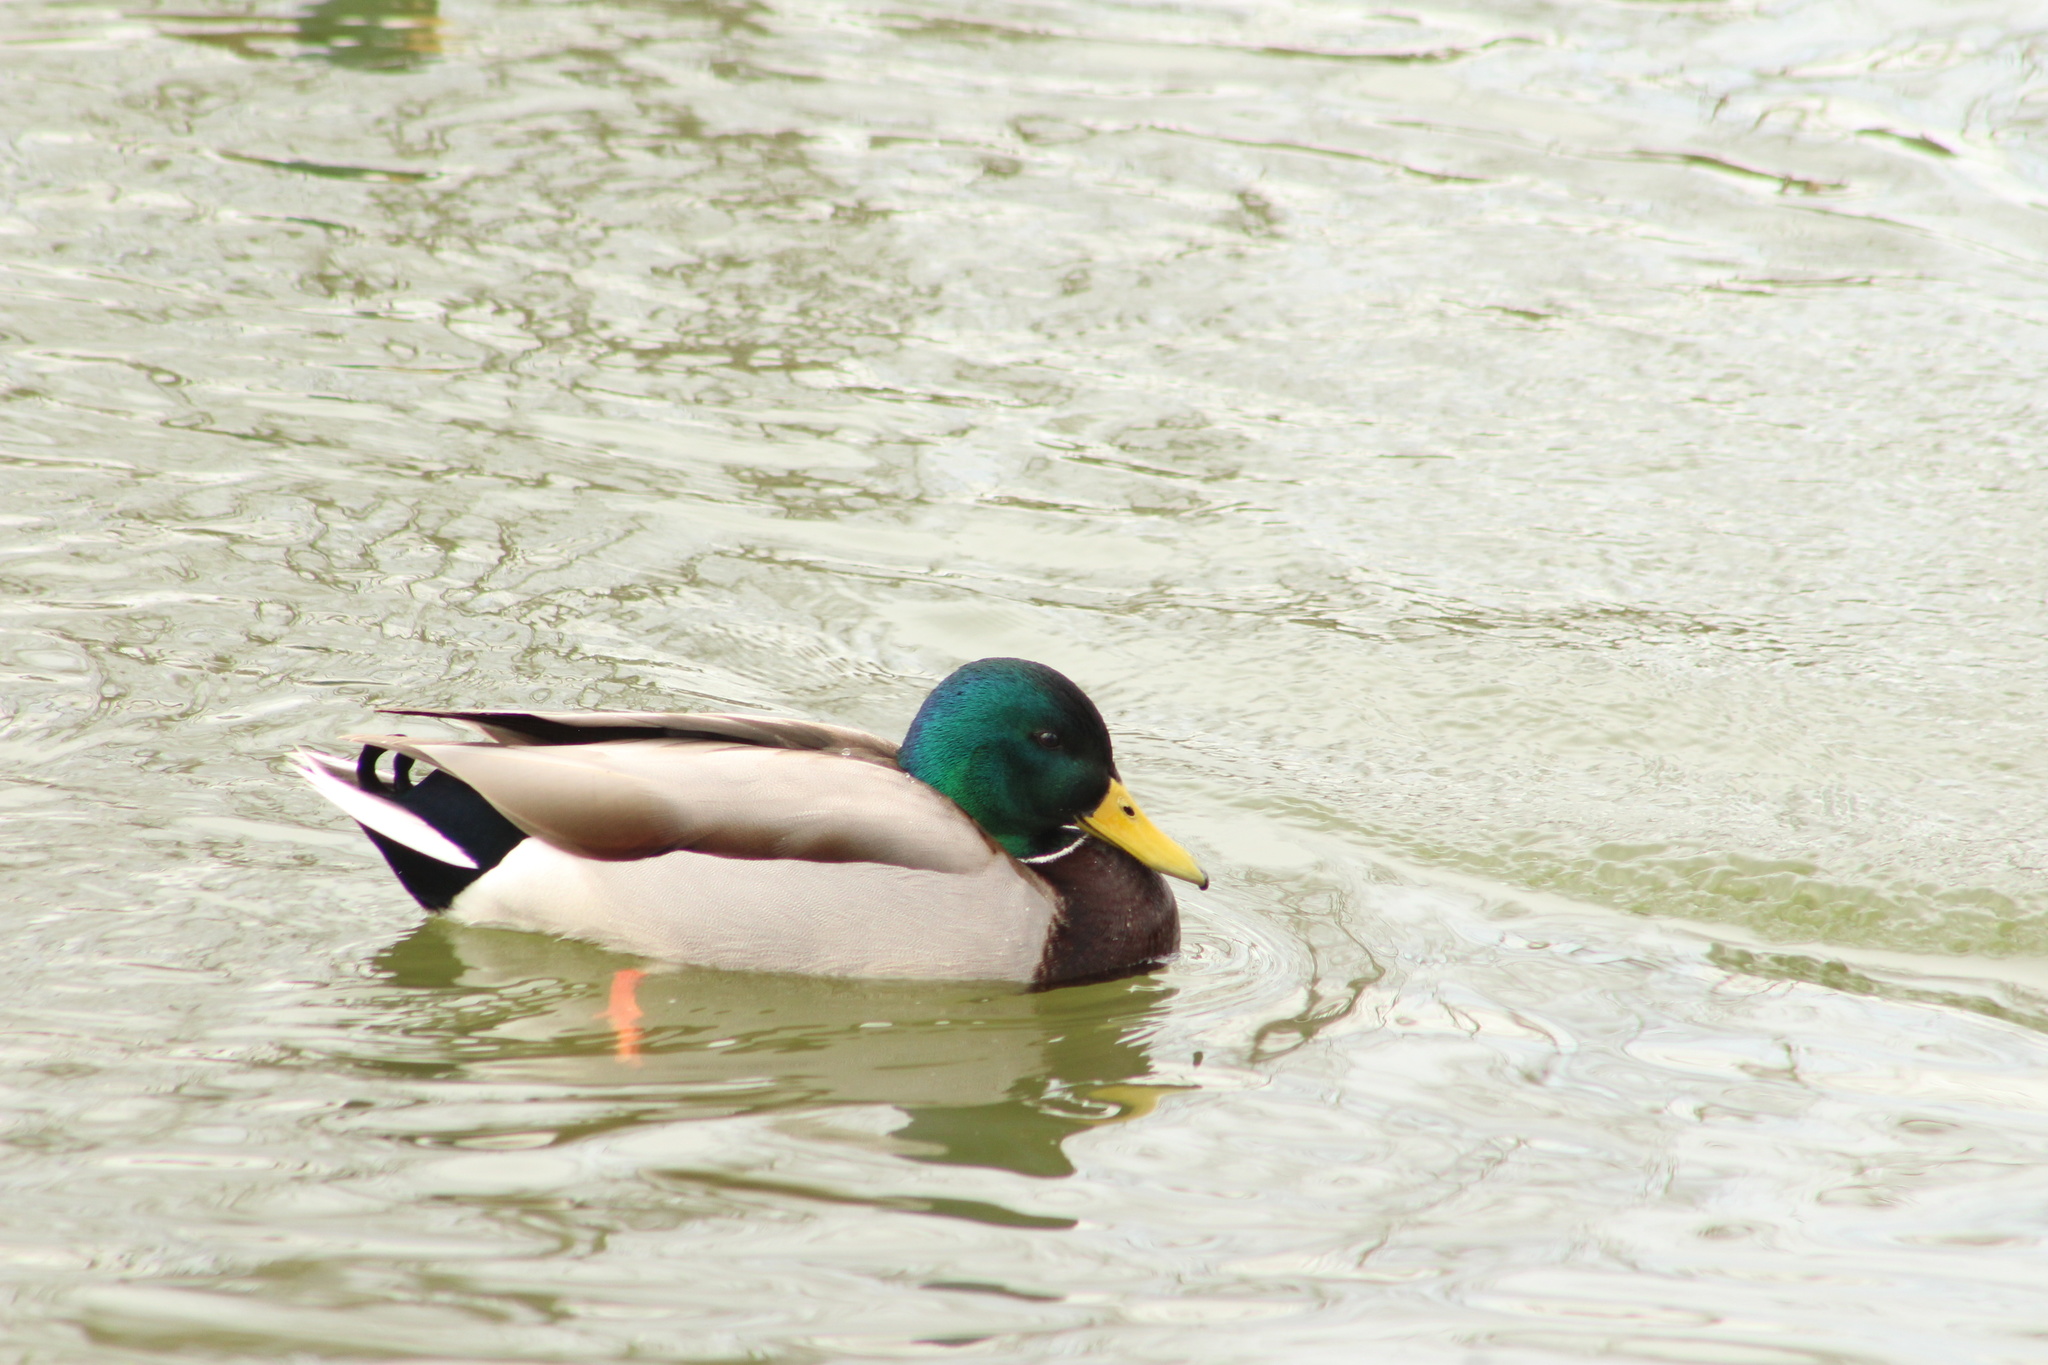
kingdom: Animalia
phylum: Chordata
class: Aves
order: Anseriformes
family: Anatidae
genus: Anas
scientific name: Anas platyrhynchos
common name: Mallard
